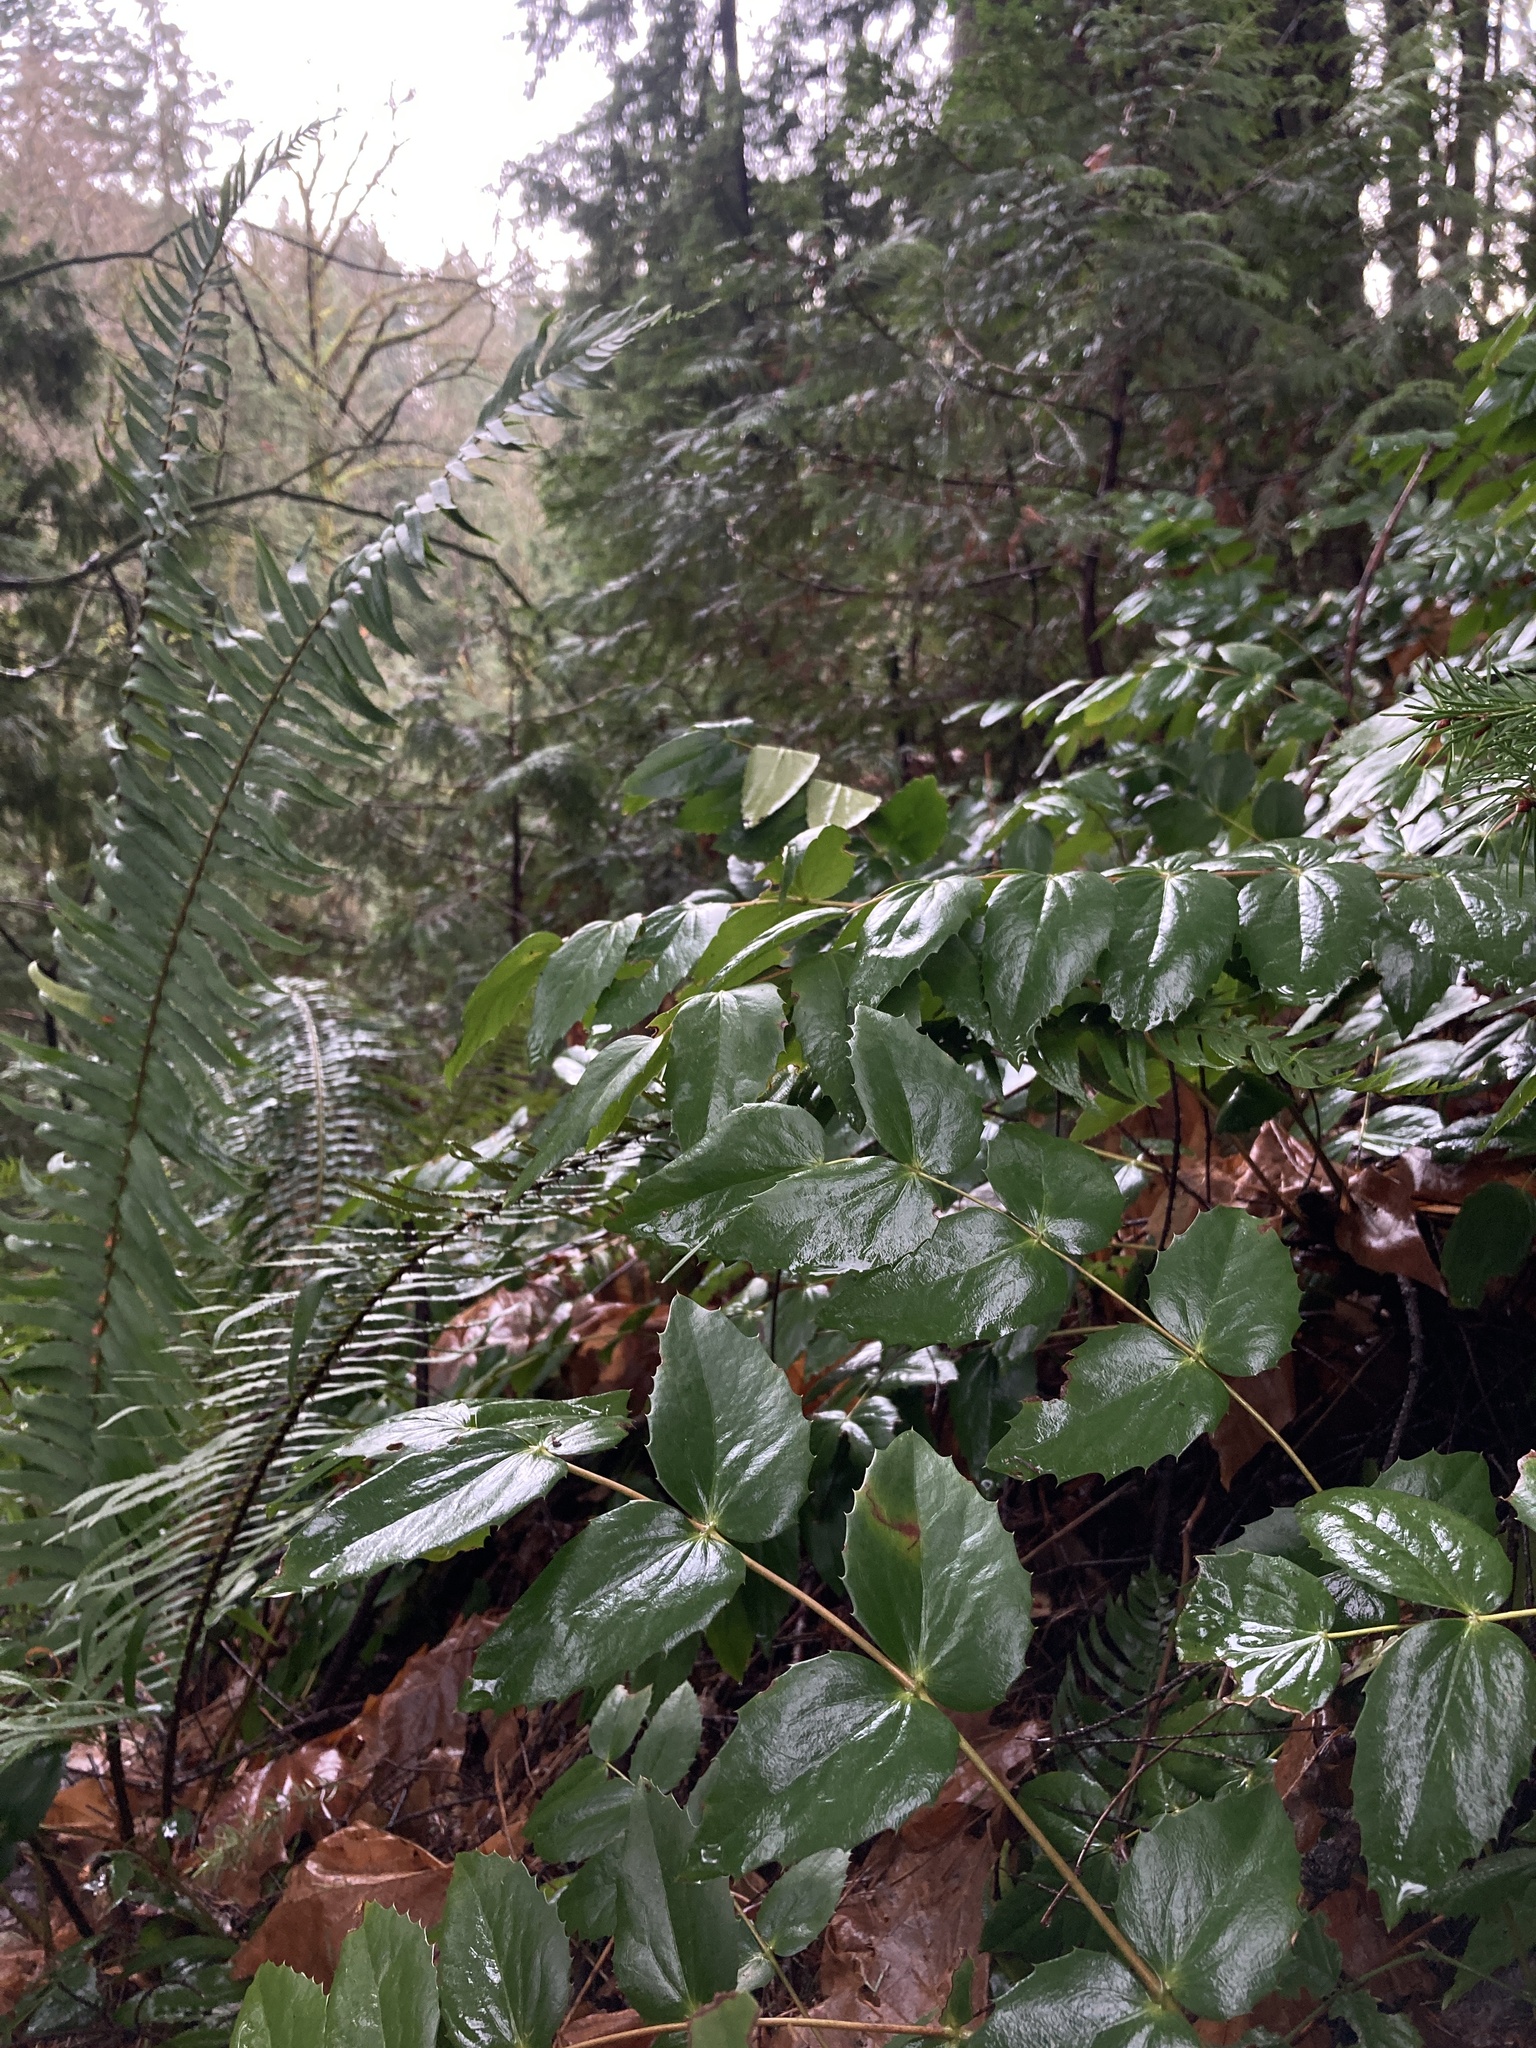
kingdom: Plantae
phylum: Tracheophyta
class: Magnoliopsida
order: Ranunculales
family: Berberidaceae
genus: Mahonia
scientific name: Mahonia nervosa
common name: Cascade oregon-grape
